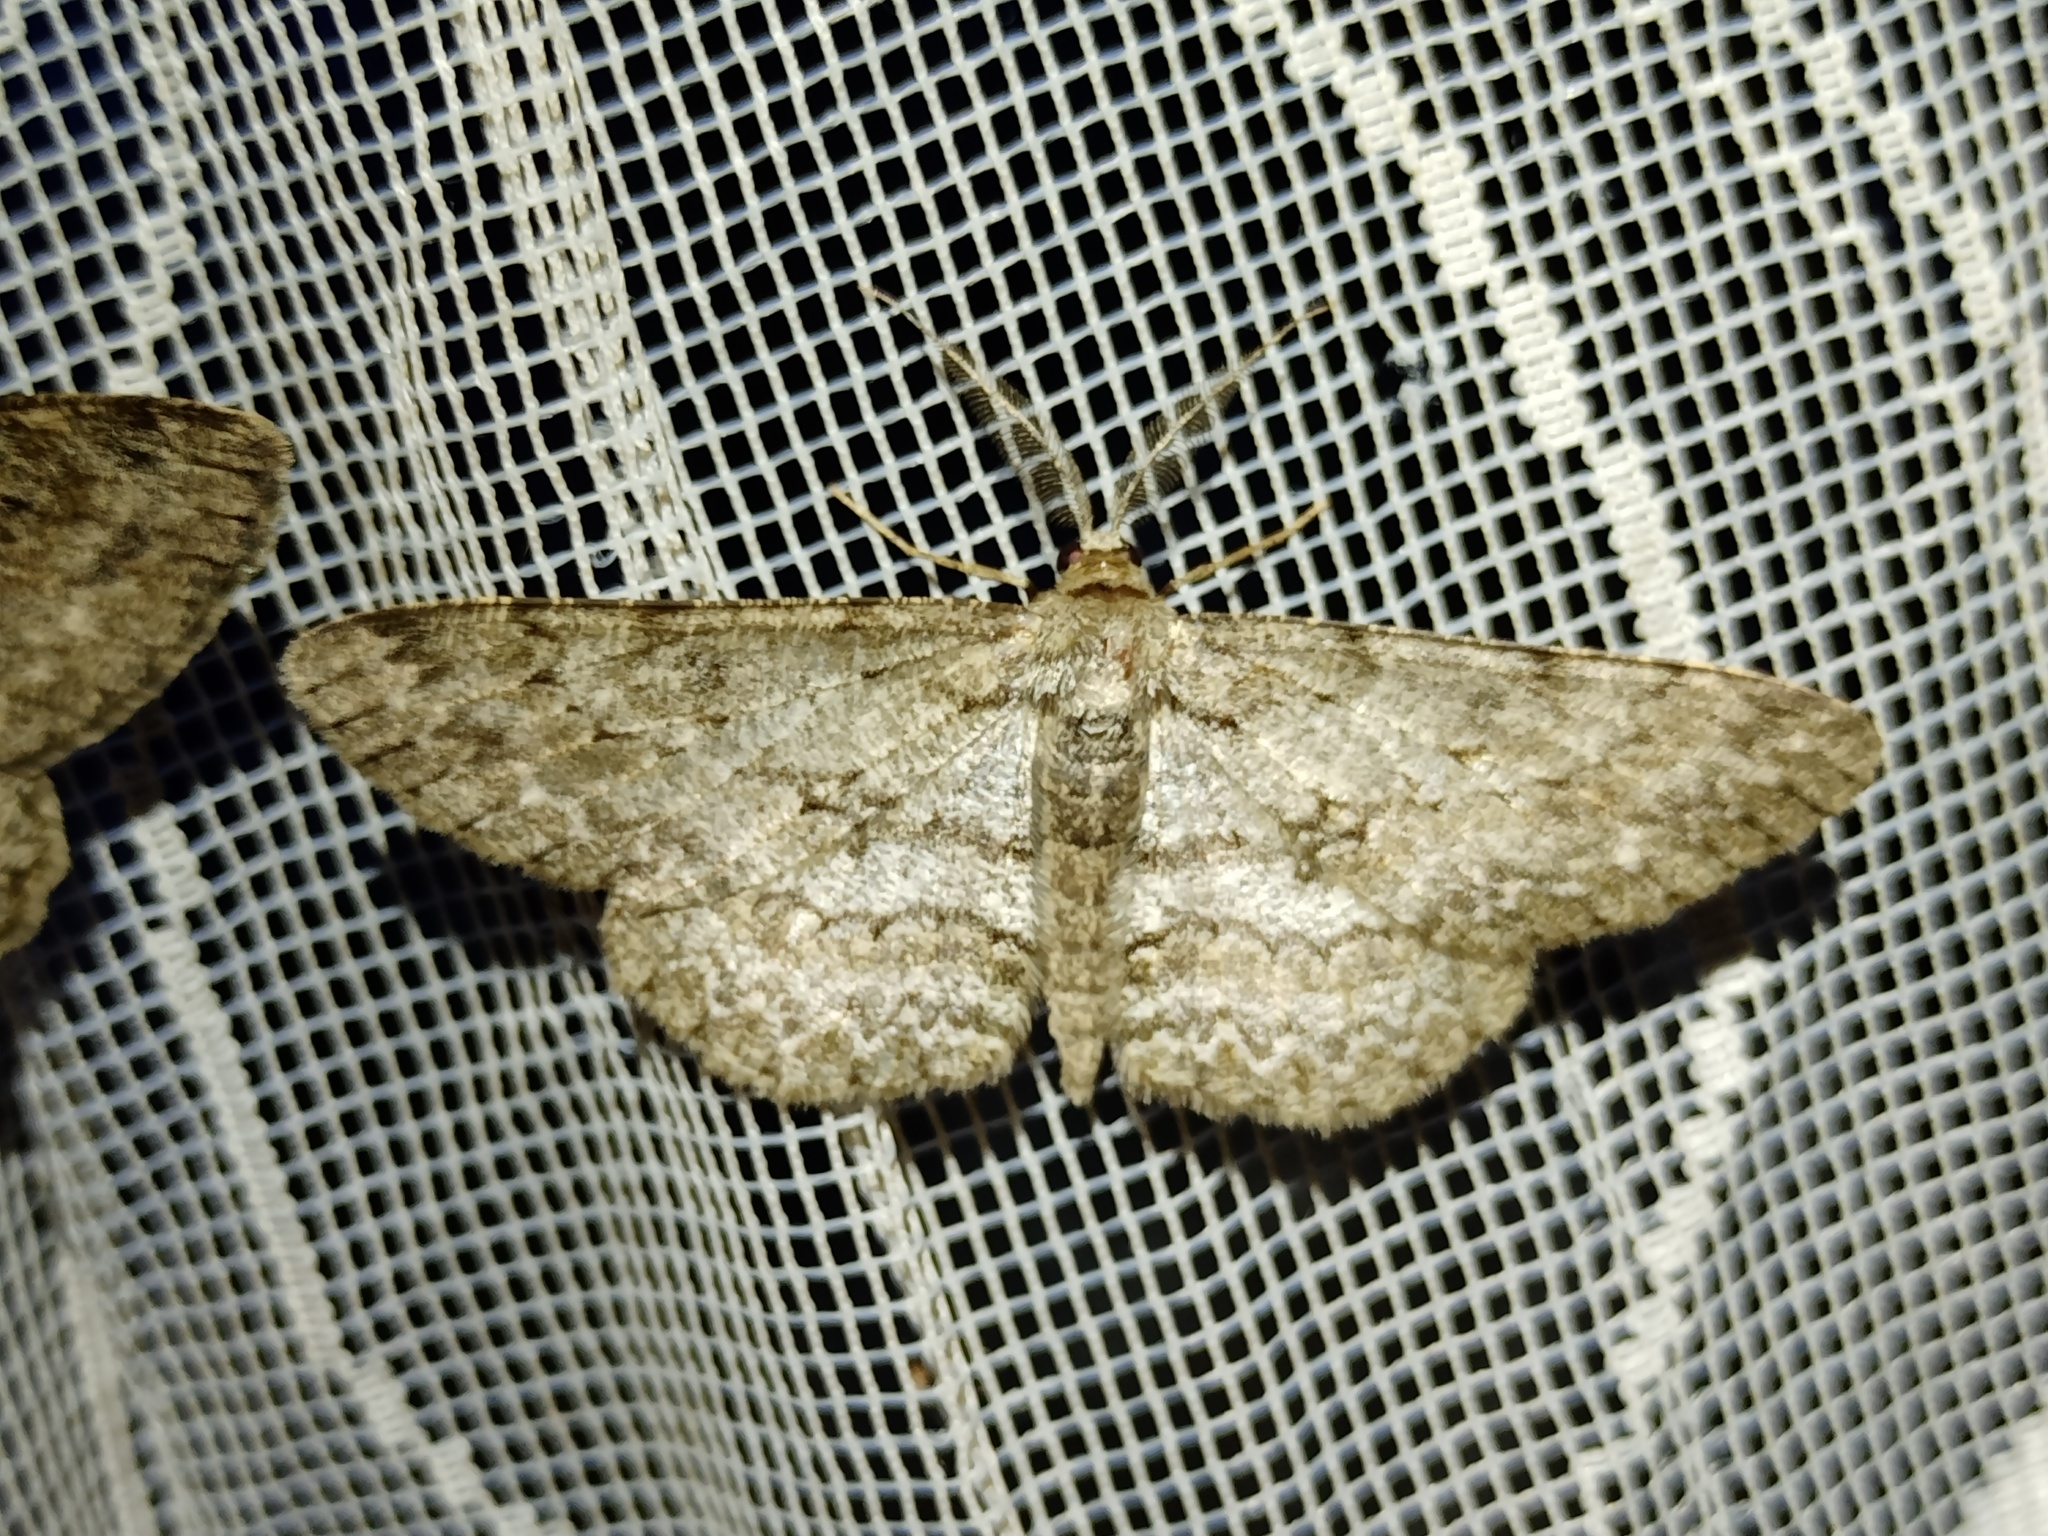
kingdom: Animalia
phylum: Arthropoda
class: Insecta
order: Lepidoptera
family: Geometridae
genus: Hypomecis
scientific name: Hypomecis punctinalis
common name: Pale oak beauty
